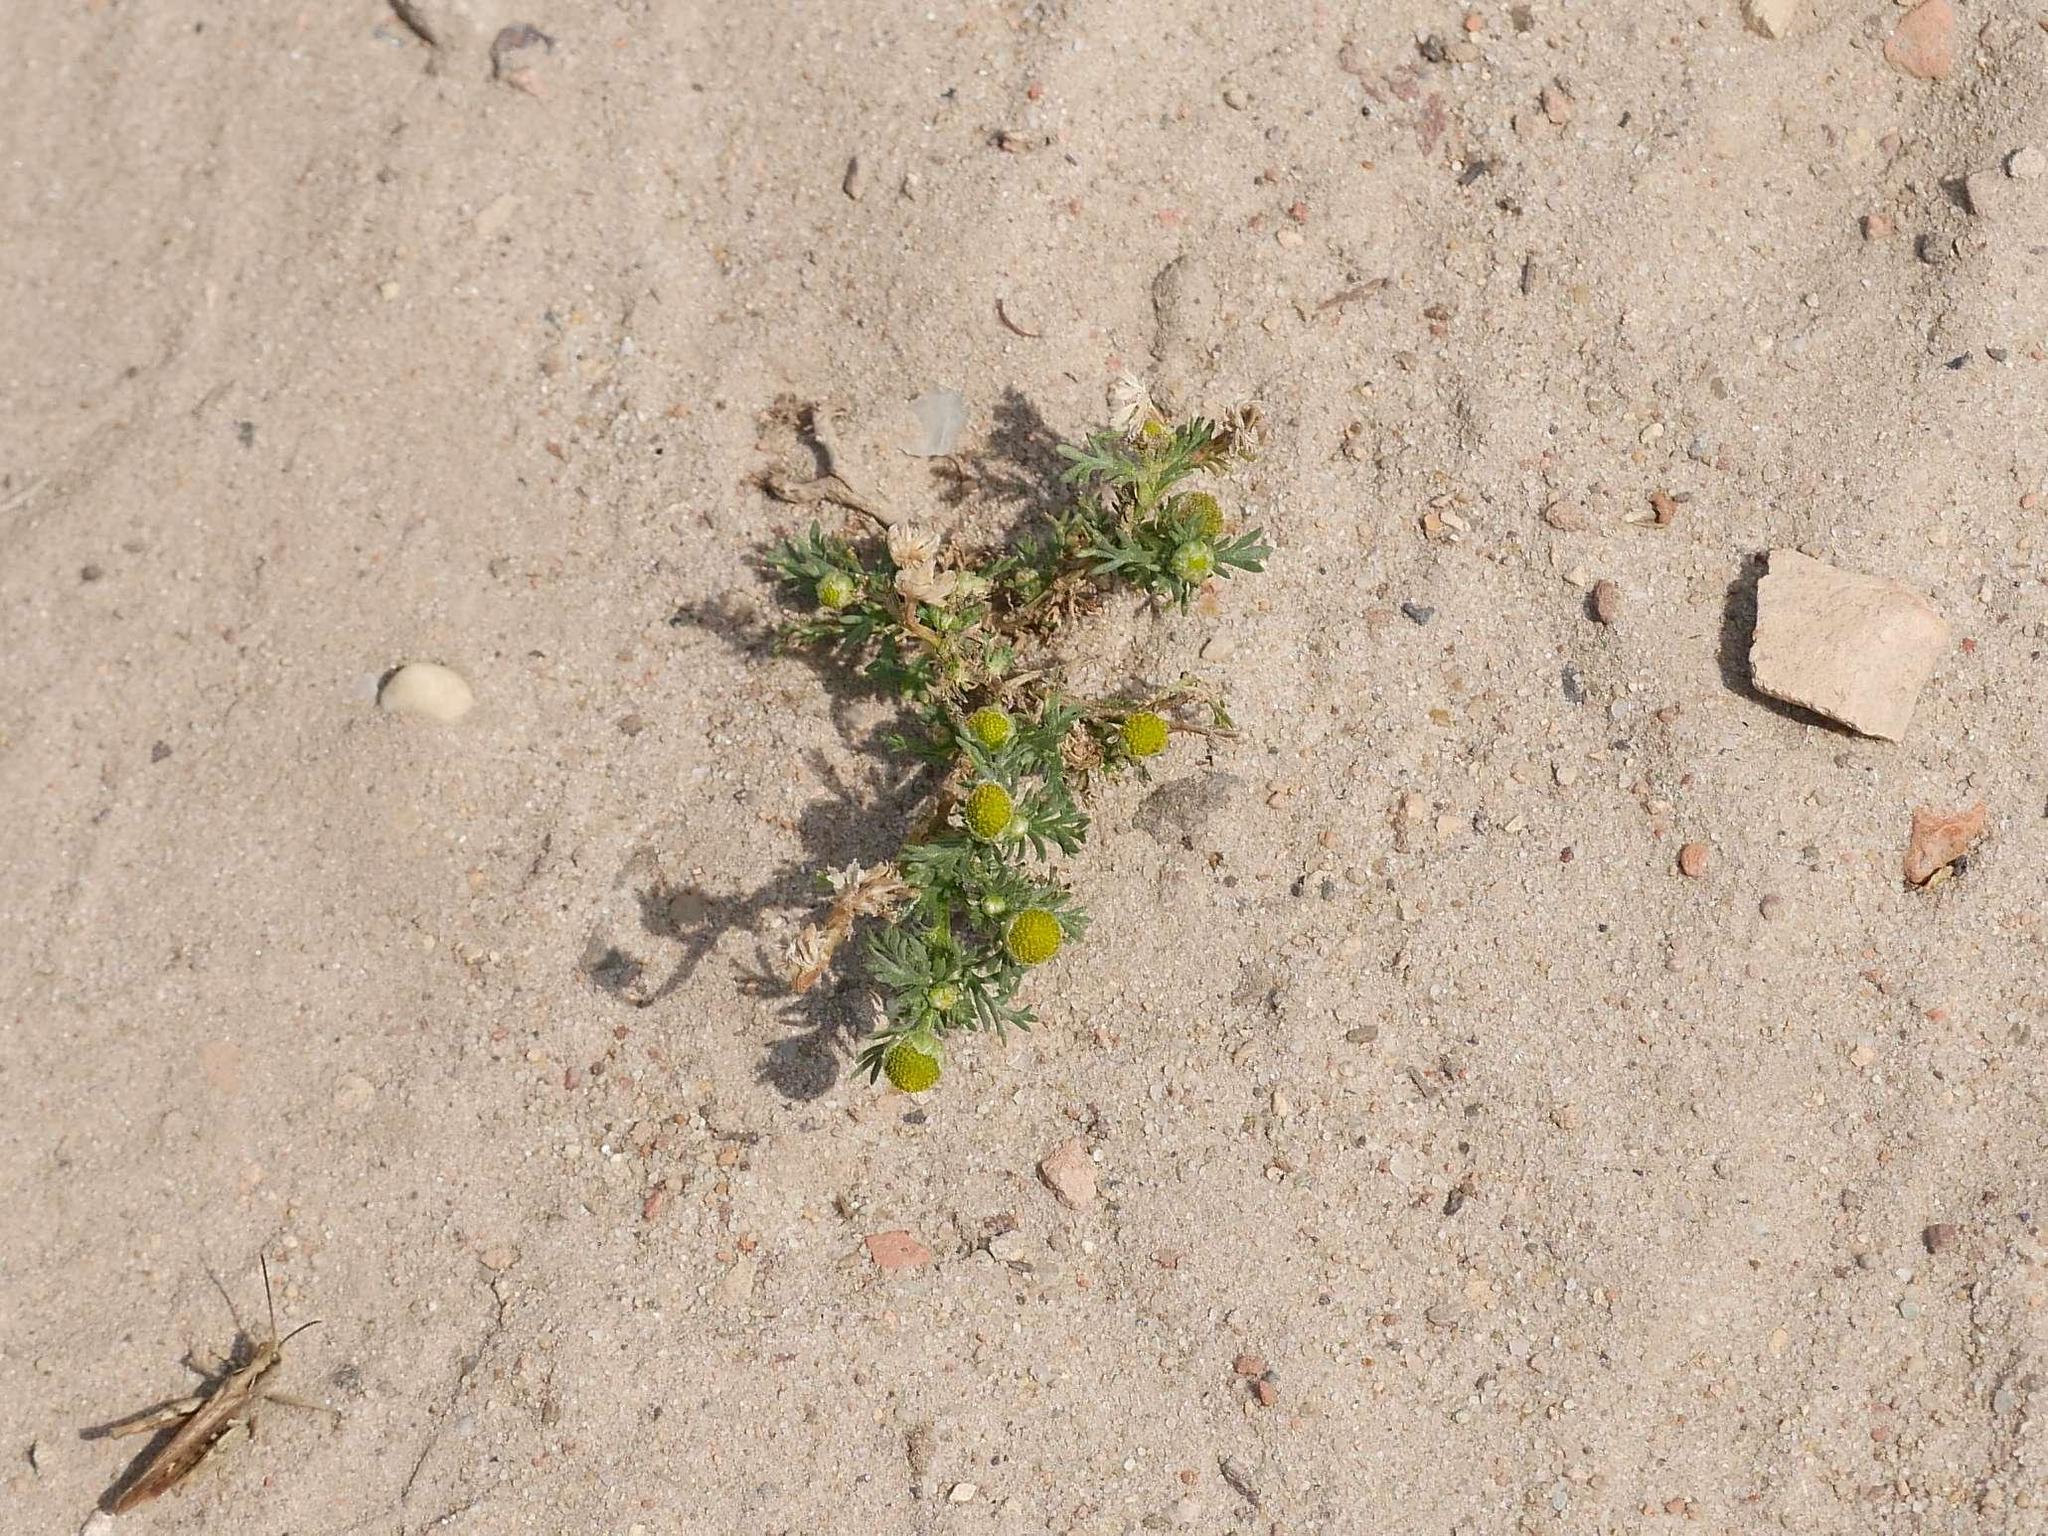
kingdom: Plantae
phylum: Tracheophyta
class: Magnoliopsida
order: Asterales
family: Asteraceae
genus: Matricaria
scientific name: Matricaria discoidea
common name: Disc mayweed
